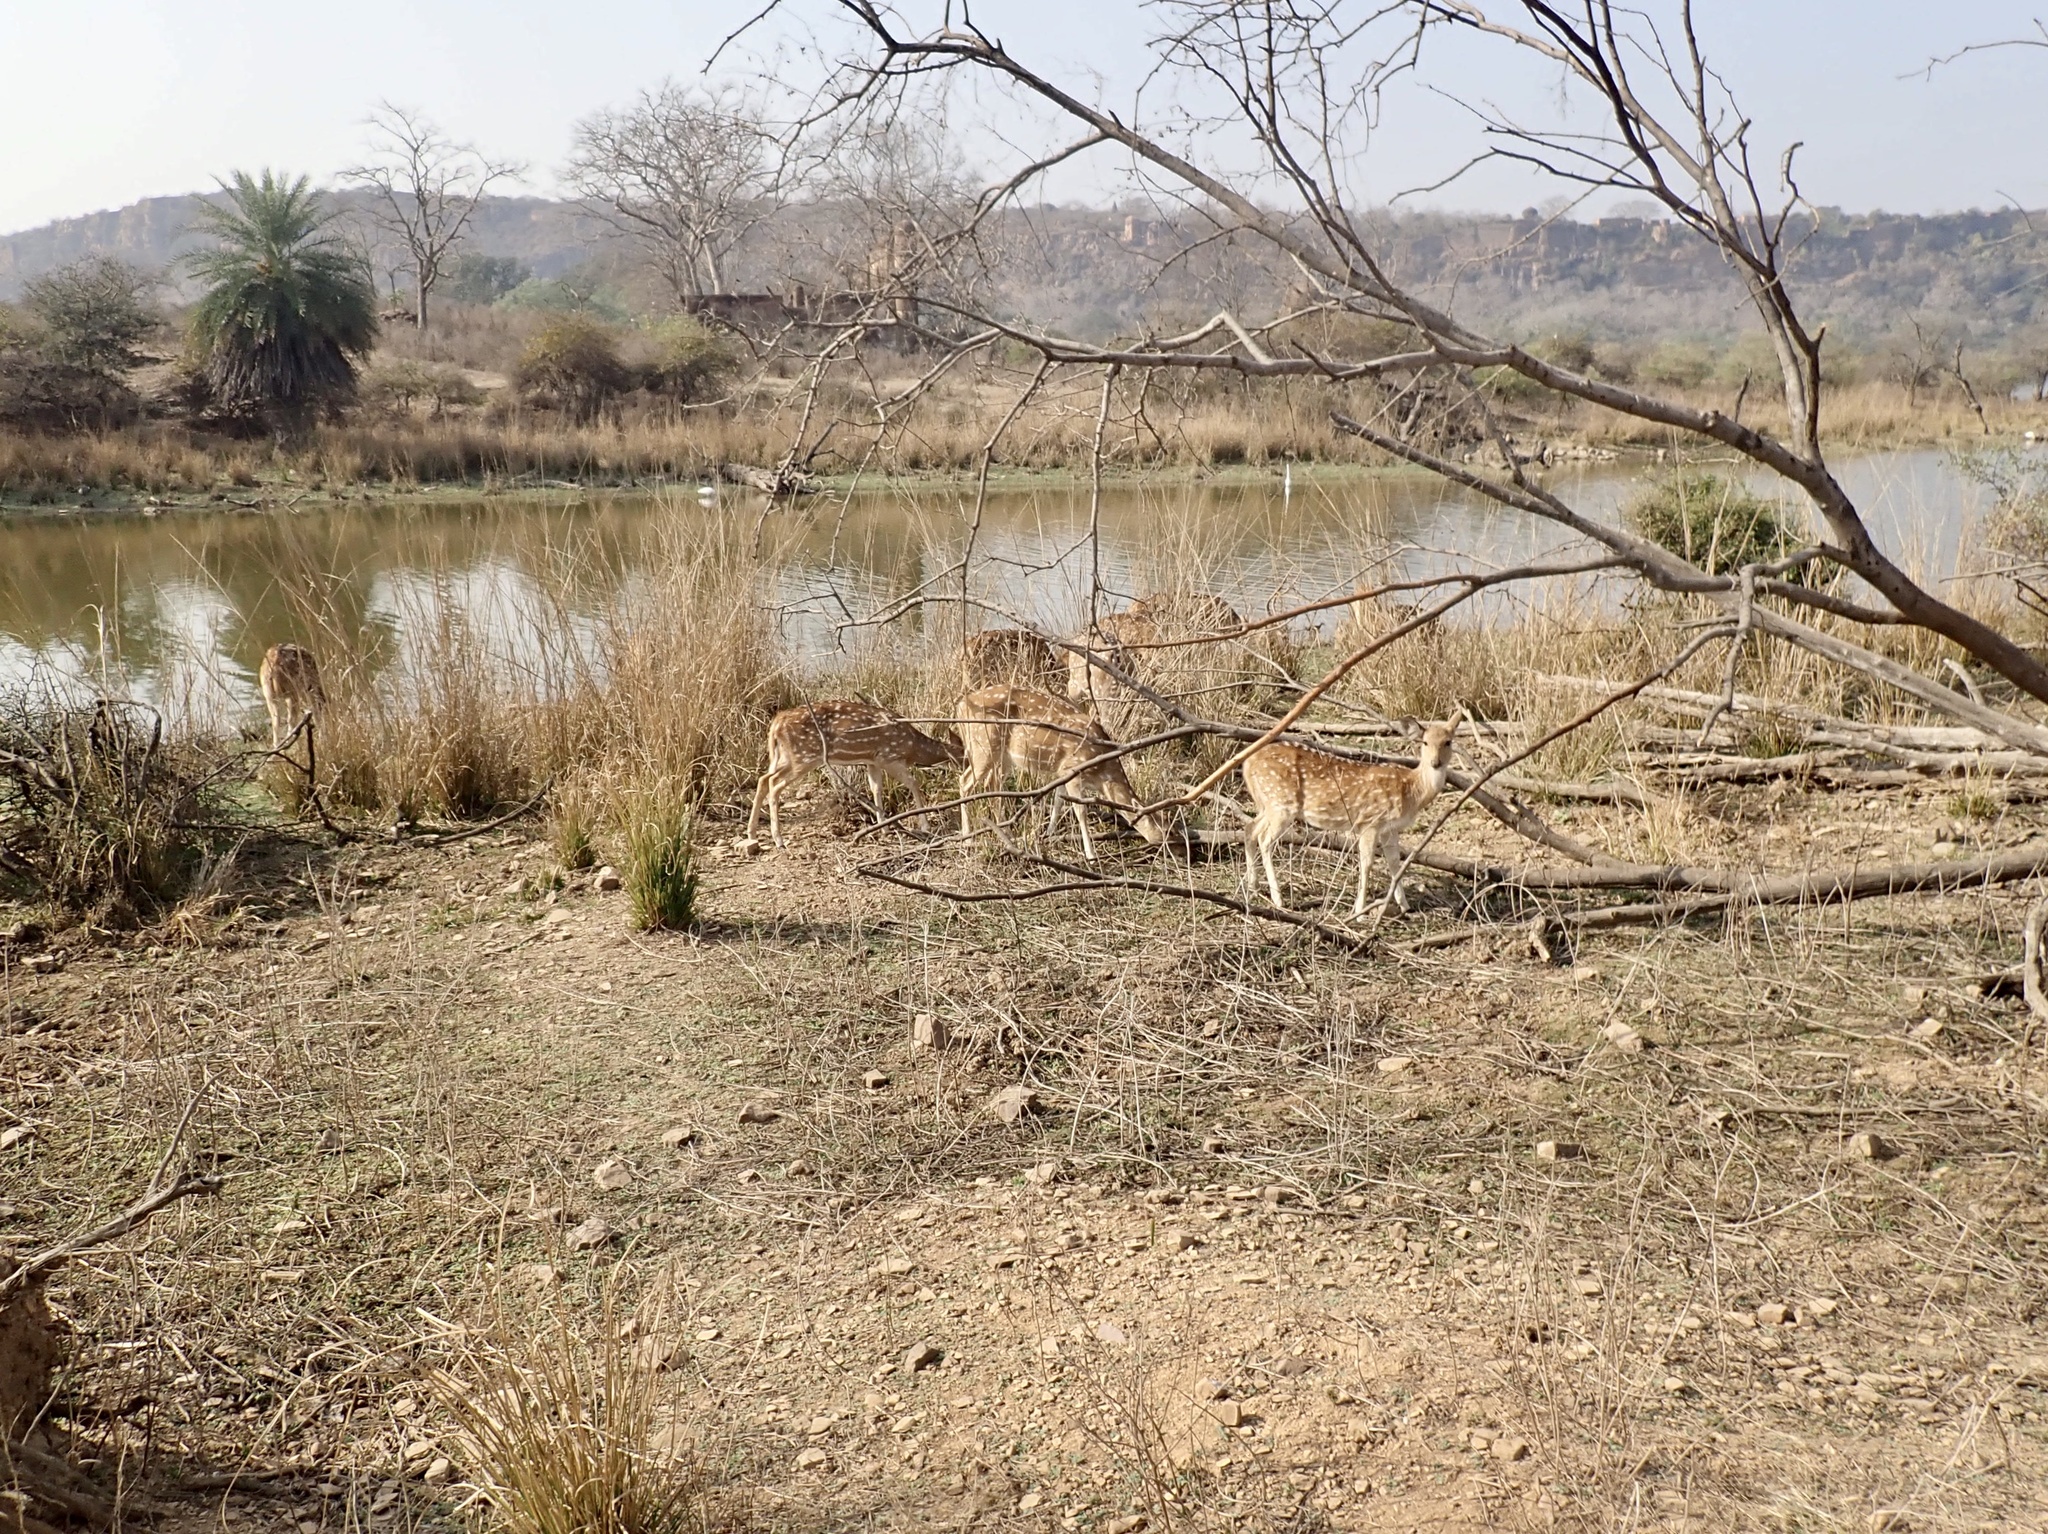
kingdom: Animalia
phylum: Chordata
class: Mammalia
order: Artiodactyla
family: Cervidae
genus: Axis
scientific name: Axis axis
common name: Chital
